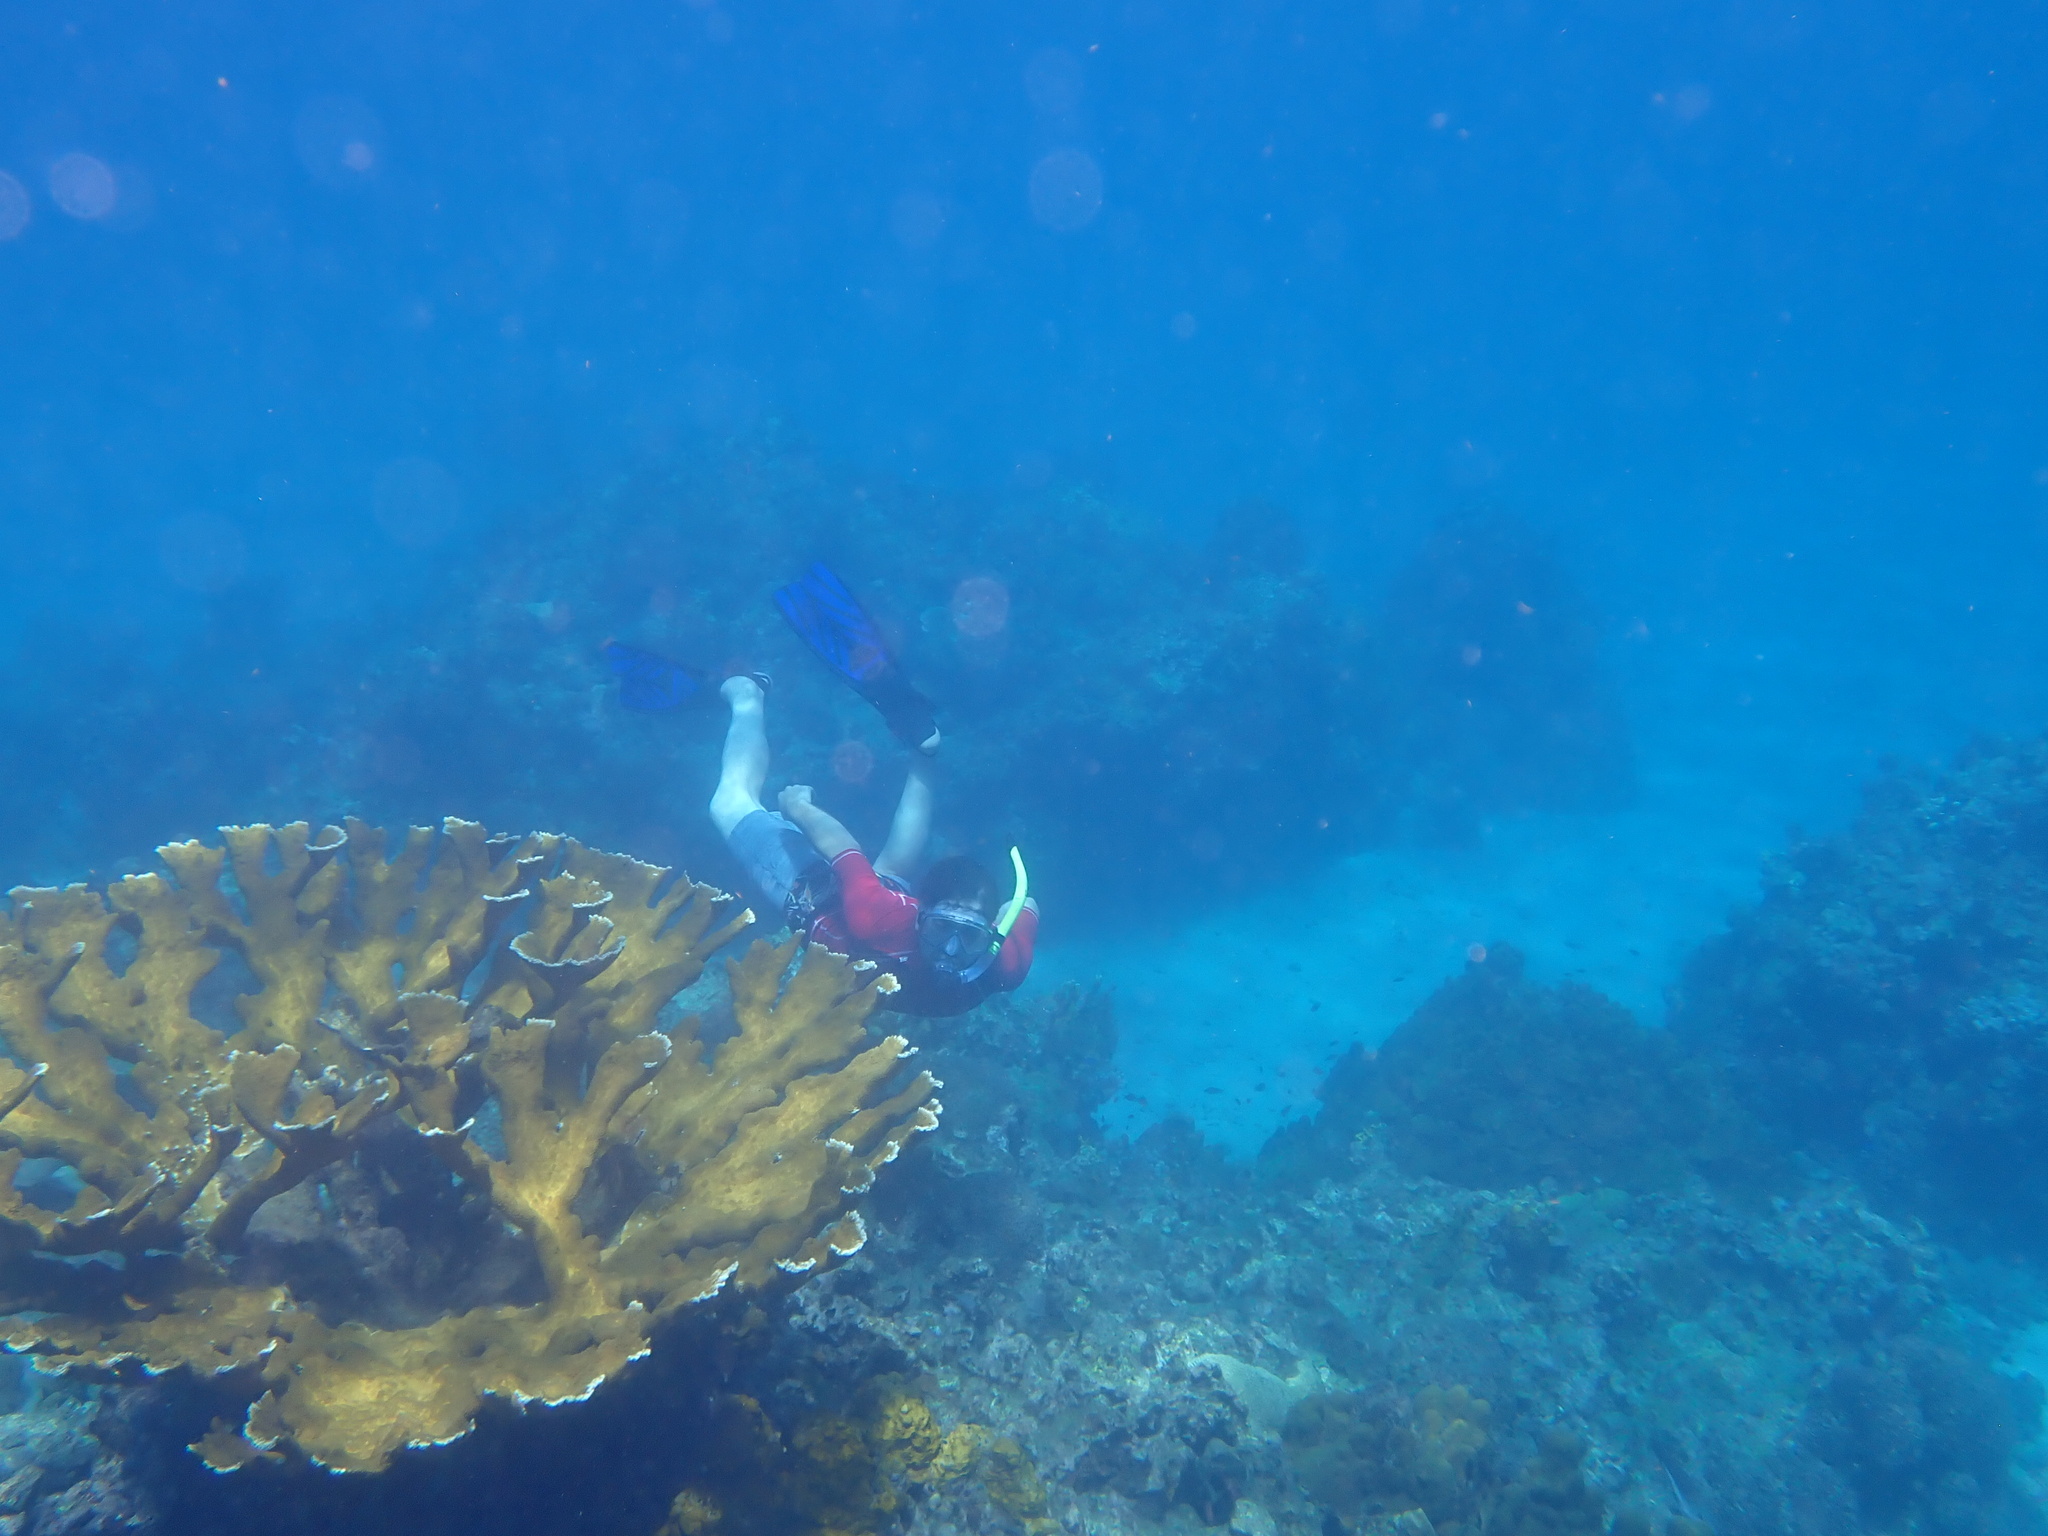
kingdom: Animalia
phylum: Cnidaria
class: Anthozoa
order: Scleractinia
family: Acroporidae
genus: Acropora
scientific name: Acropora palmata
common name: Elkhorn coral
